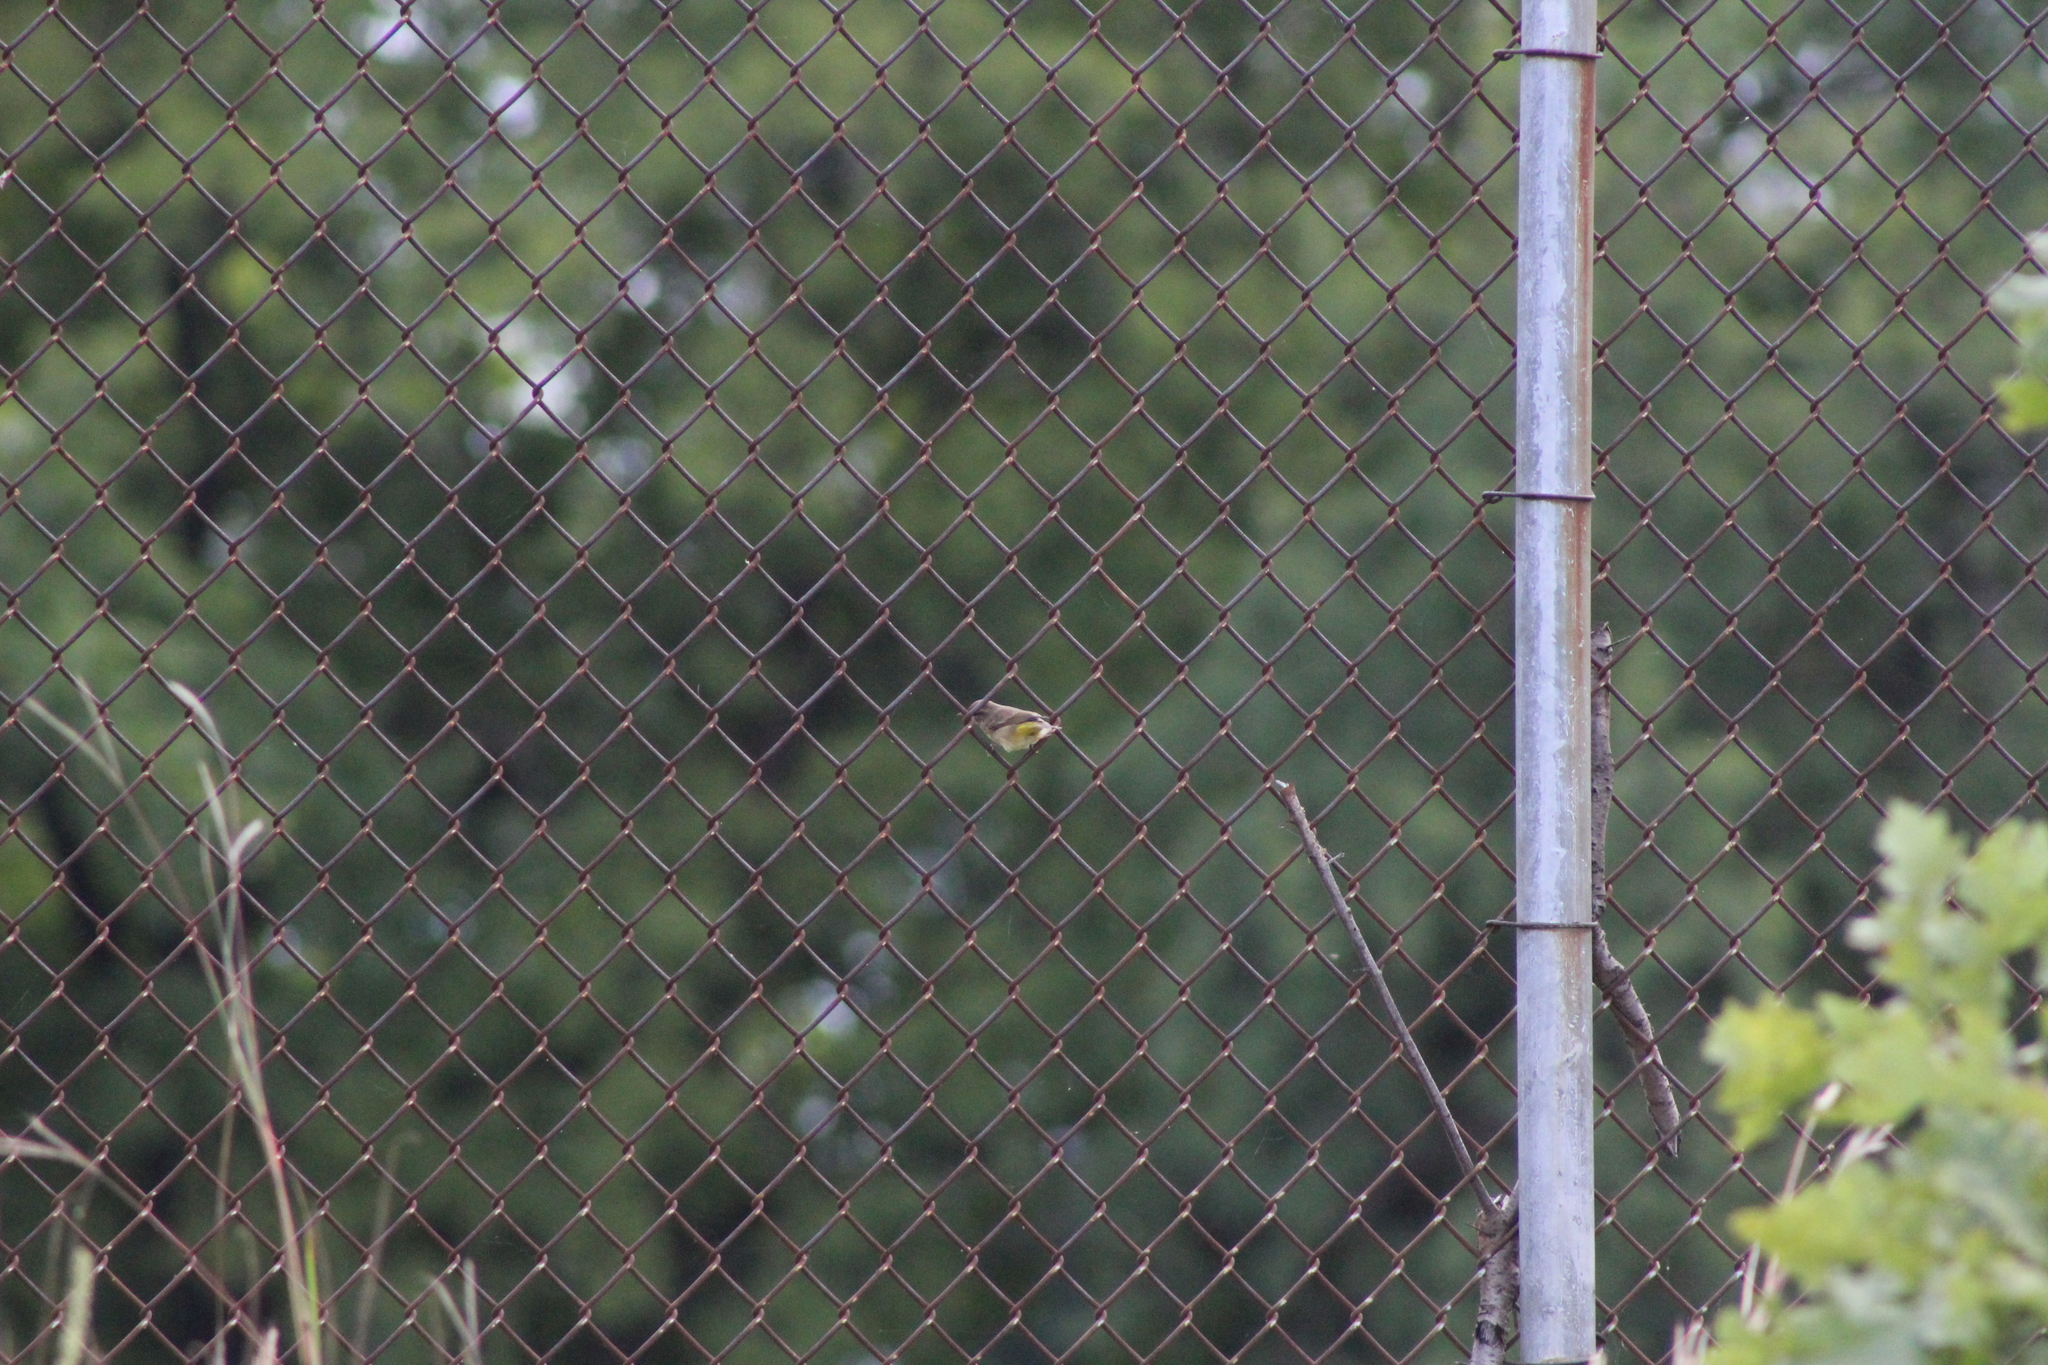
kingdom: Animalia
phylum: Chordata
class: Aves
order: Passeriformes
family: Parulidae
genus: Setophaga
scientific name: Setophaga palmarum
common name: Palm warbler
